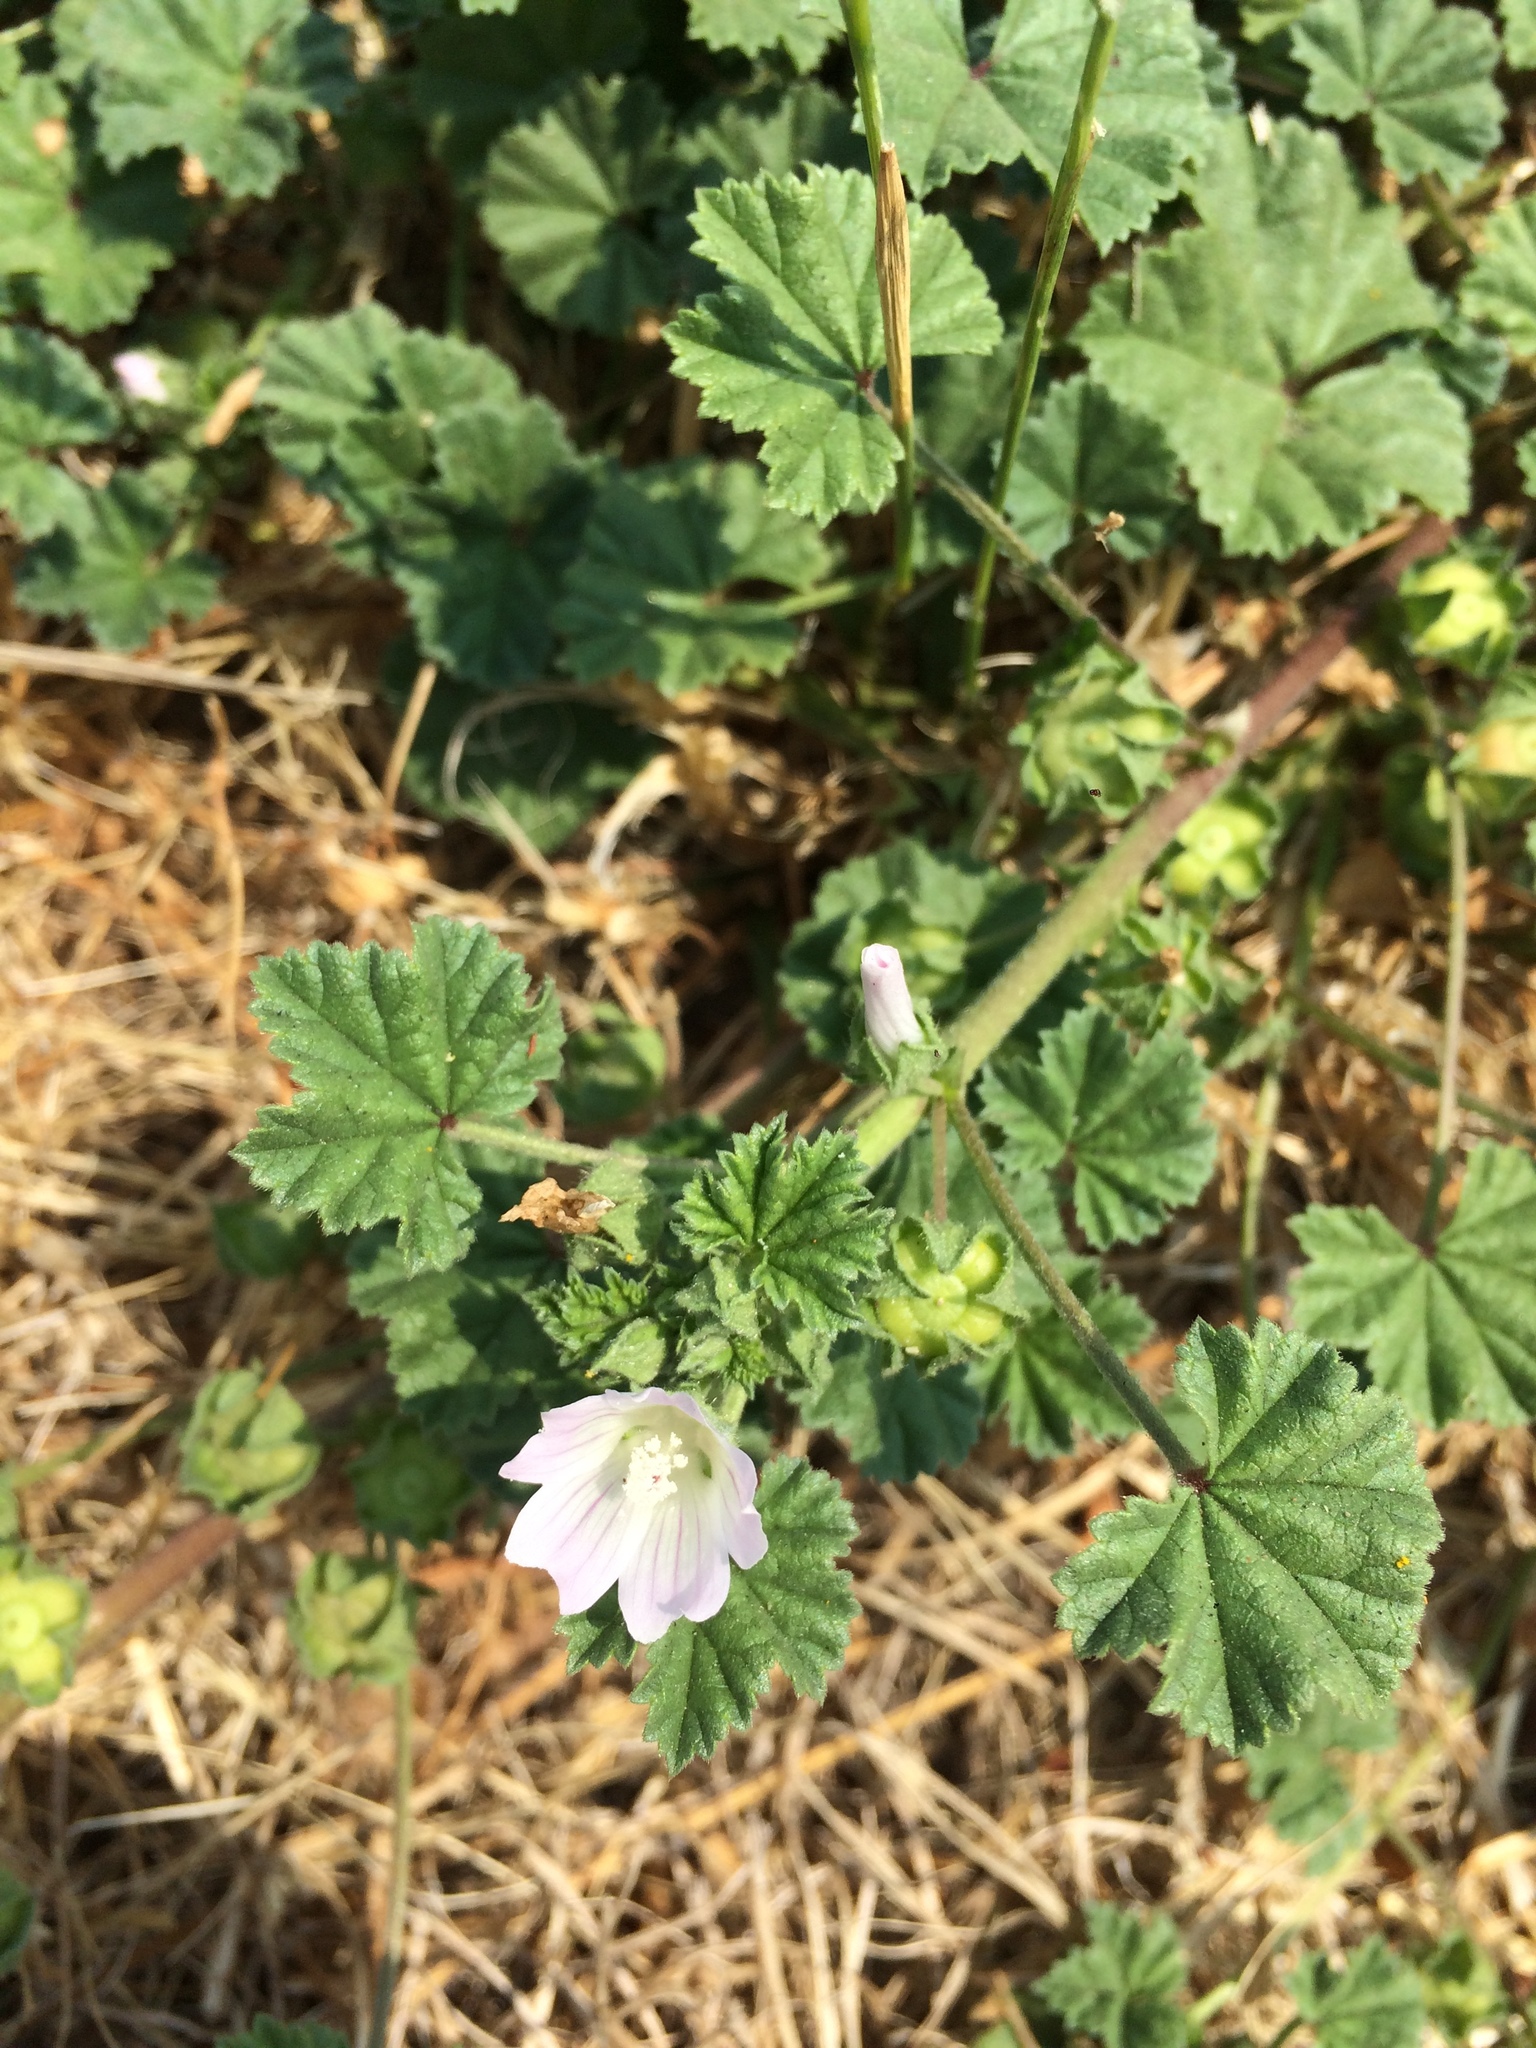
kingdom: Plantae
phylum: Tracheophyta
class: Magnoliopsida
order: Malvales
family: Malvaceae
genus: Malva
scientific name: Malva neglecta
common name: Common mallow
